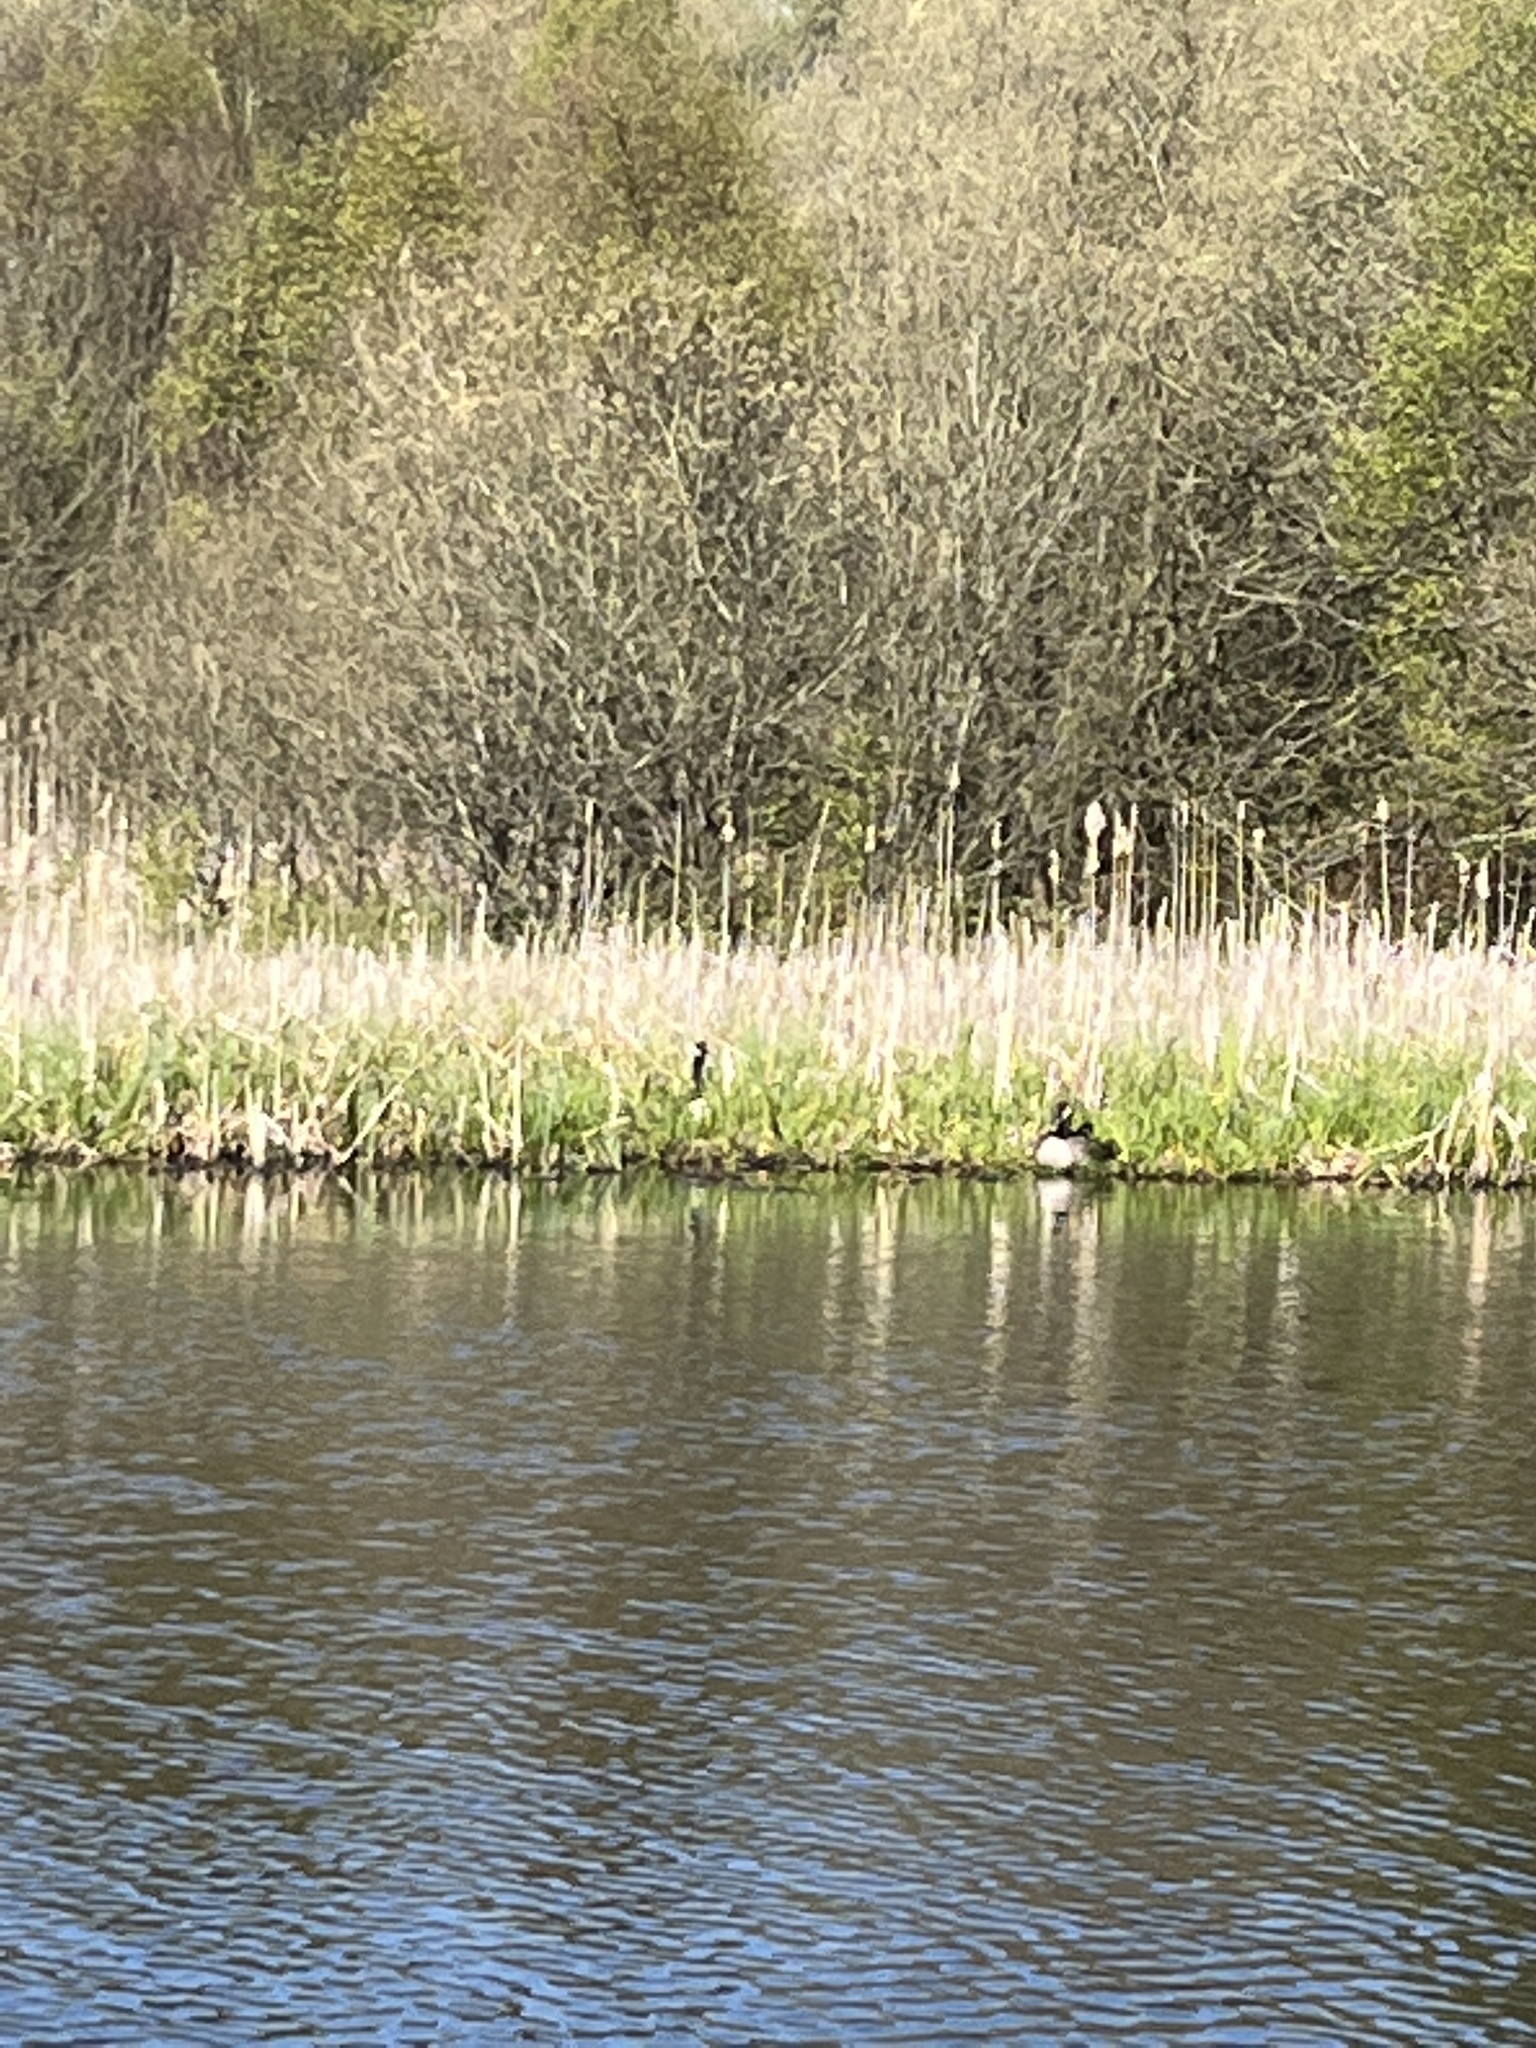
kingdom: Animalia
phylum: Chordata
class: Aves
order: Anseriformes
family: Anatidae
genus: Branta
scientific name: Branta canadensis
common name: Canada goose
